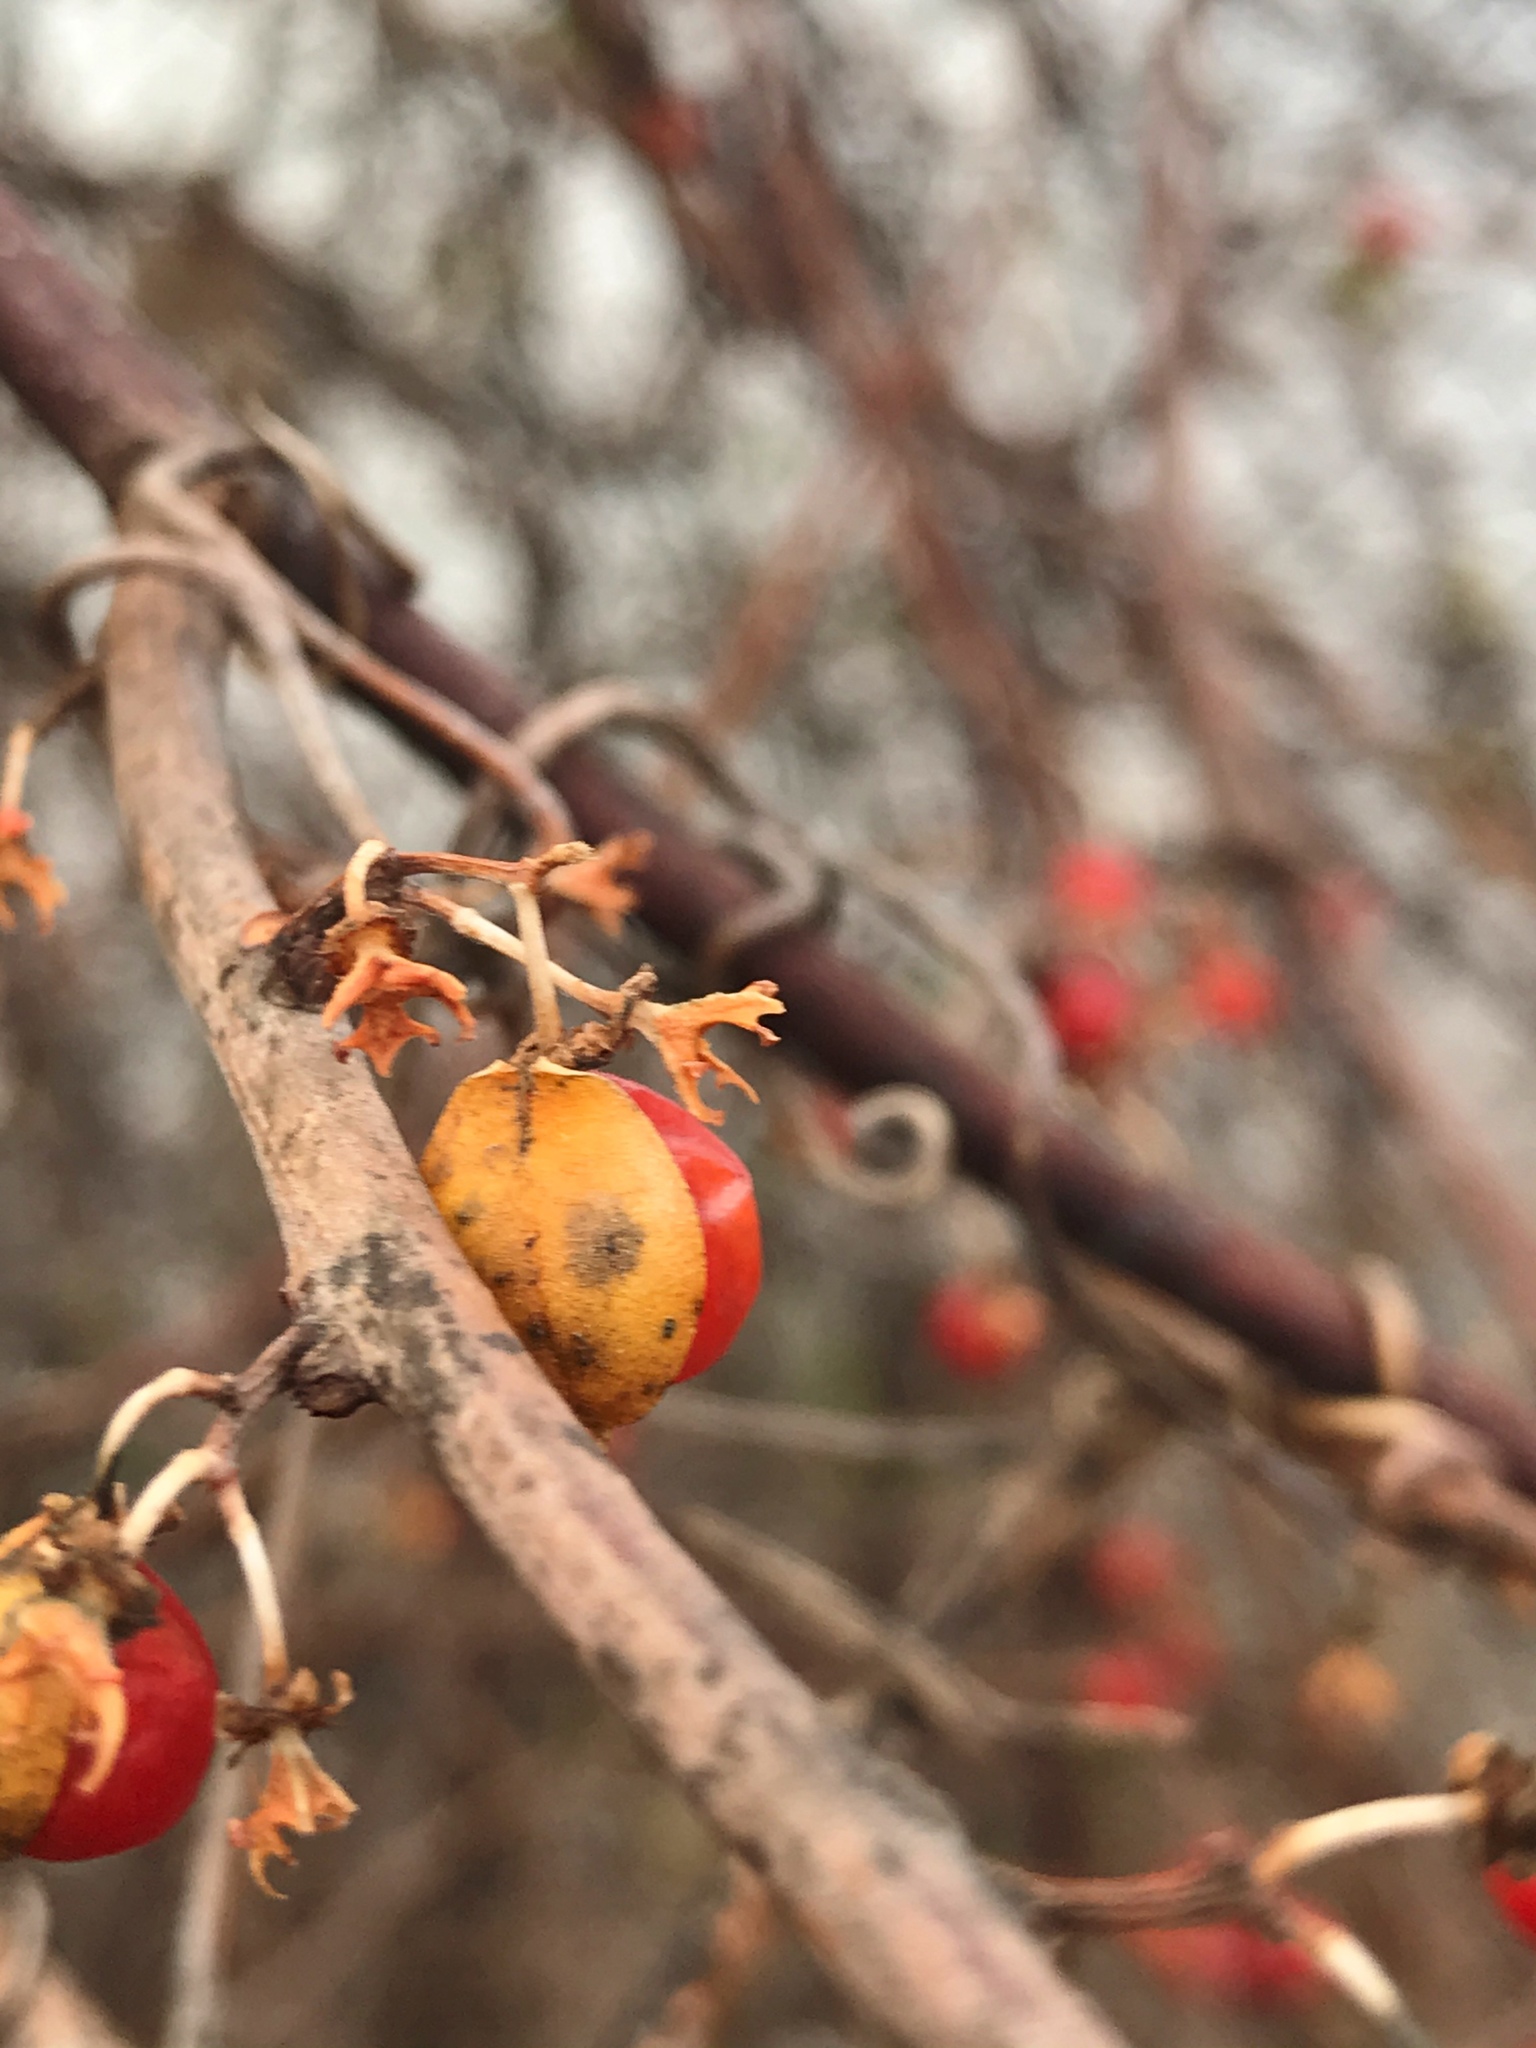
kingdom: Plantae
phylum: Tracheophyta
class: Magnoliopsida
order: Celastrales
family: Celastraceae
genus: Celastrus
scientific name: Celastrus orbiculatus
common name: Oriental bittersweet
